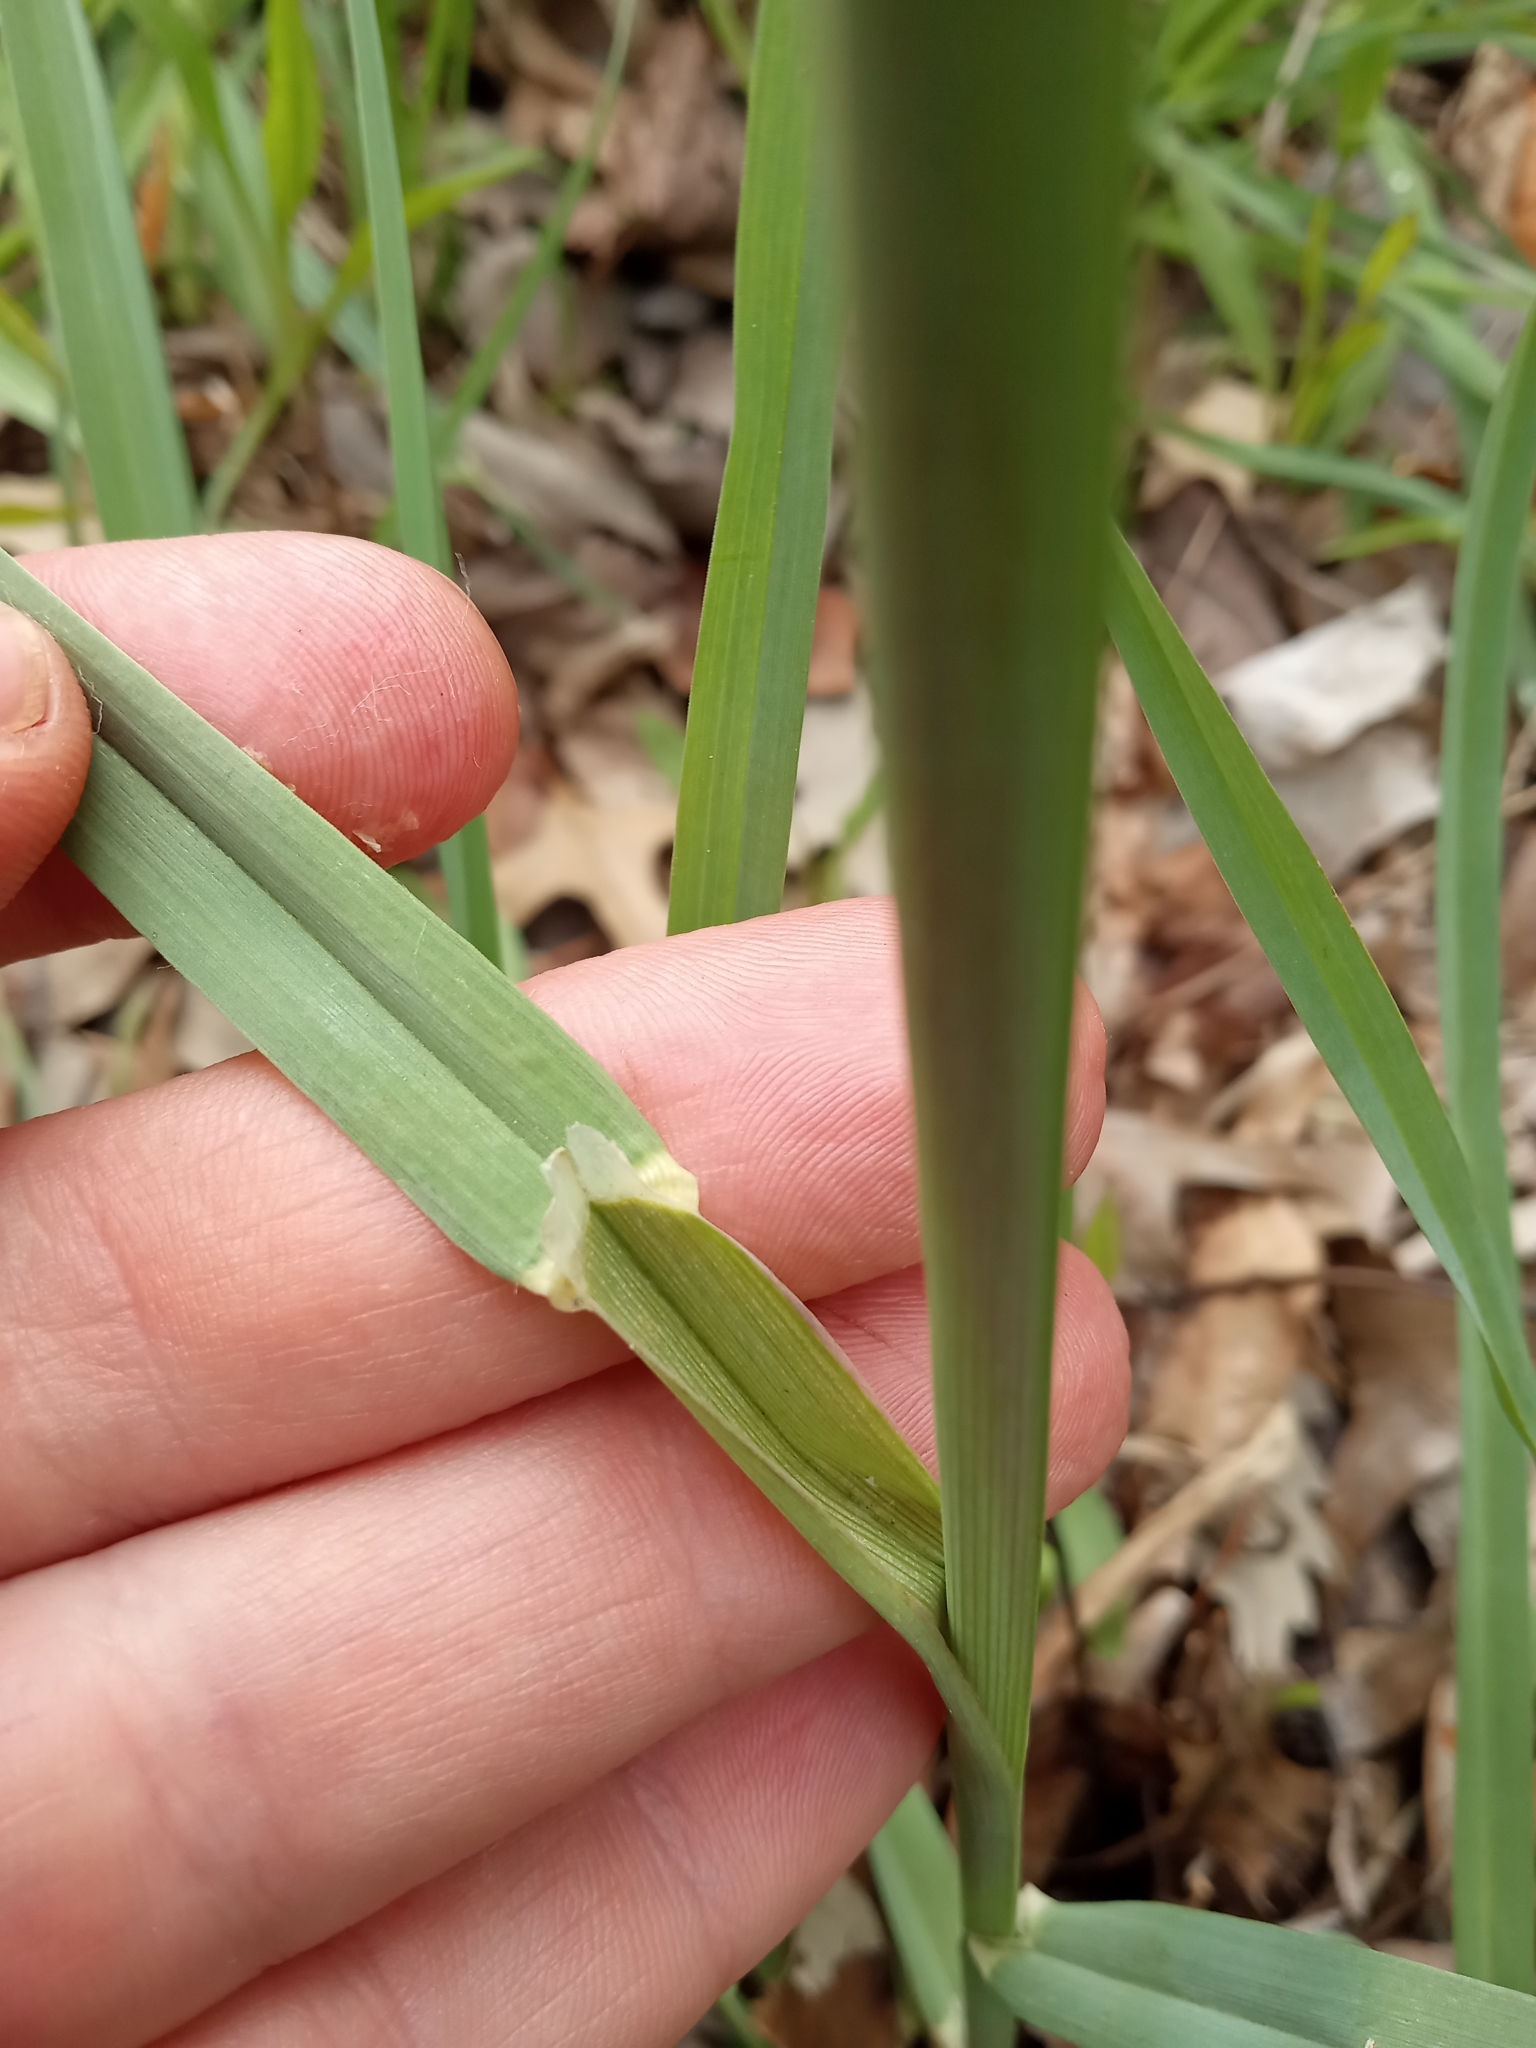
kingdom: Plantae
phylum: Tracheophyta
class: Liliopsida
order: Poales
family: Poaceae
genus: Dactylis
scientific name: Dactylis glomerata
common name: Orchardgrass
